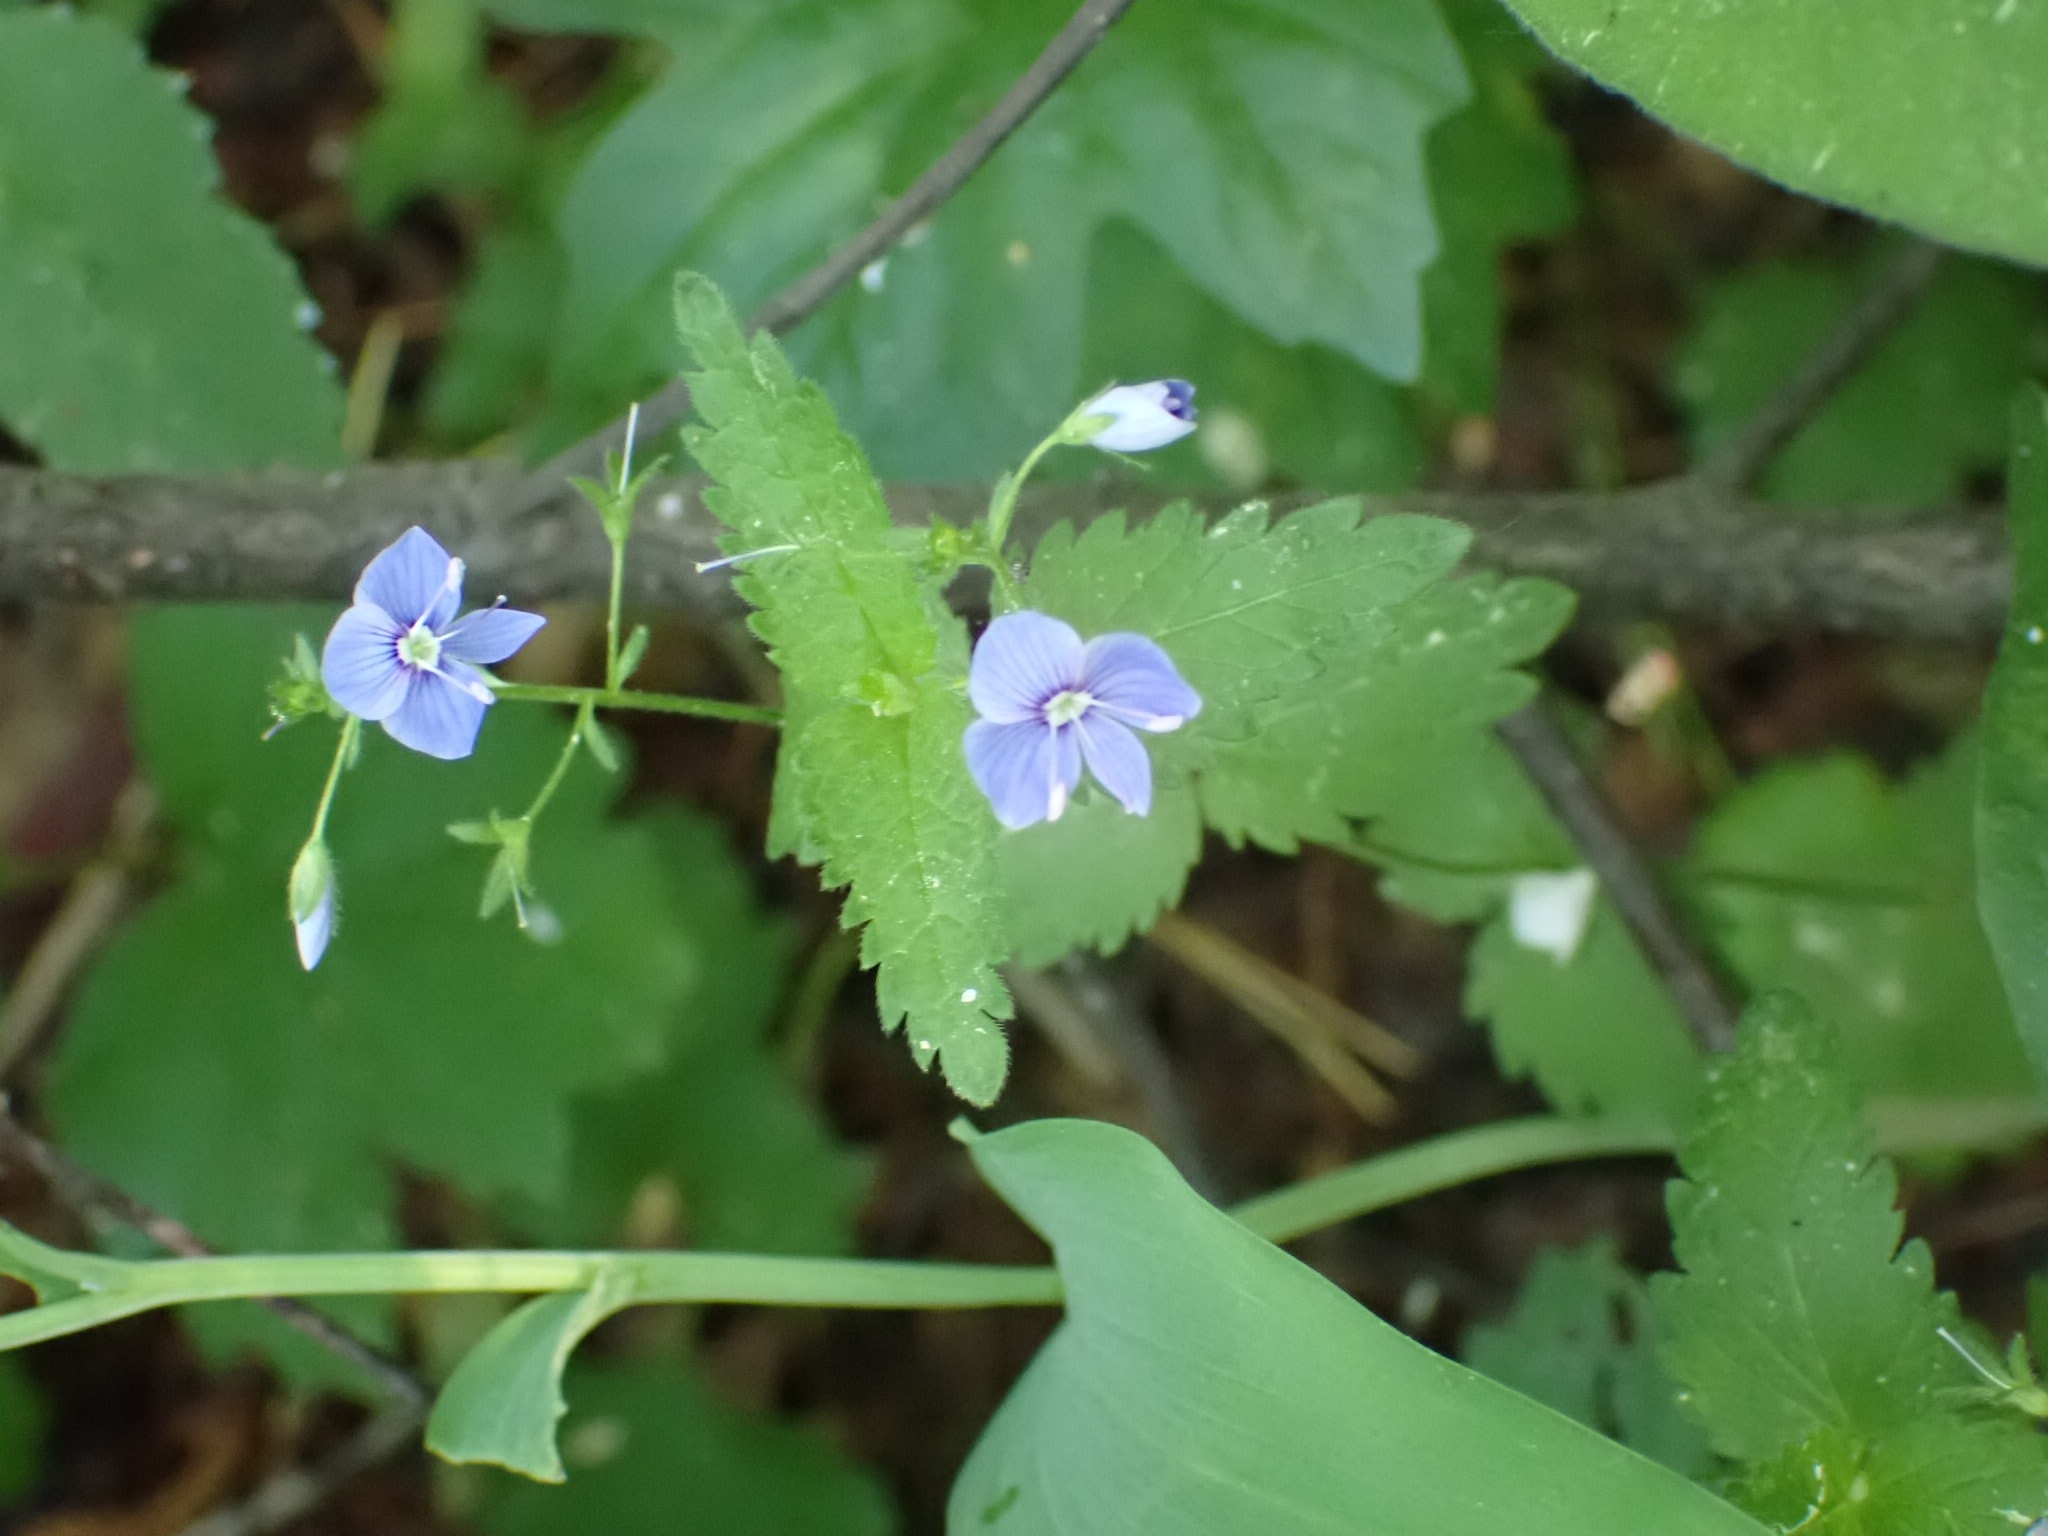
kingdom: Plantae
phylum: Tracheophyta
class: Magnoliopsida
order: Lamiales
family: Plantaginaceae
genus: Veronica
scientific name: Veronica chamaedrys
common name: Germander speedwell
